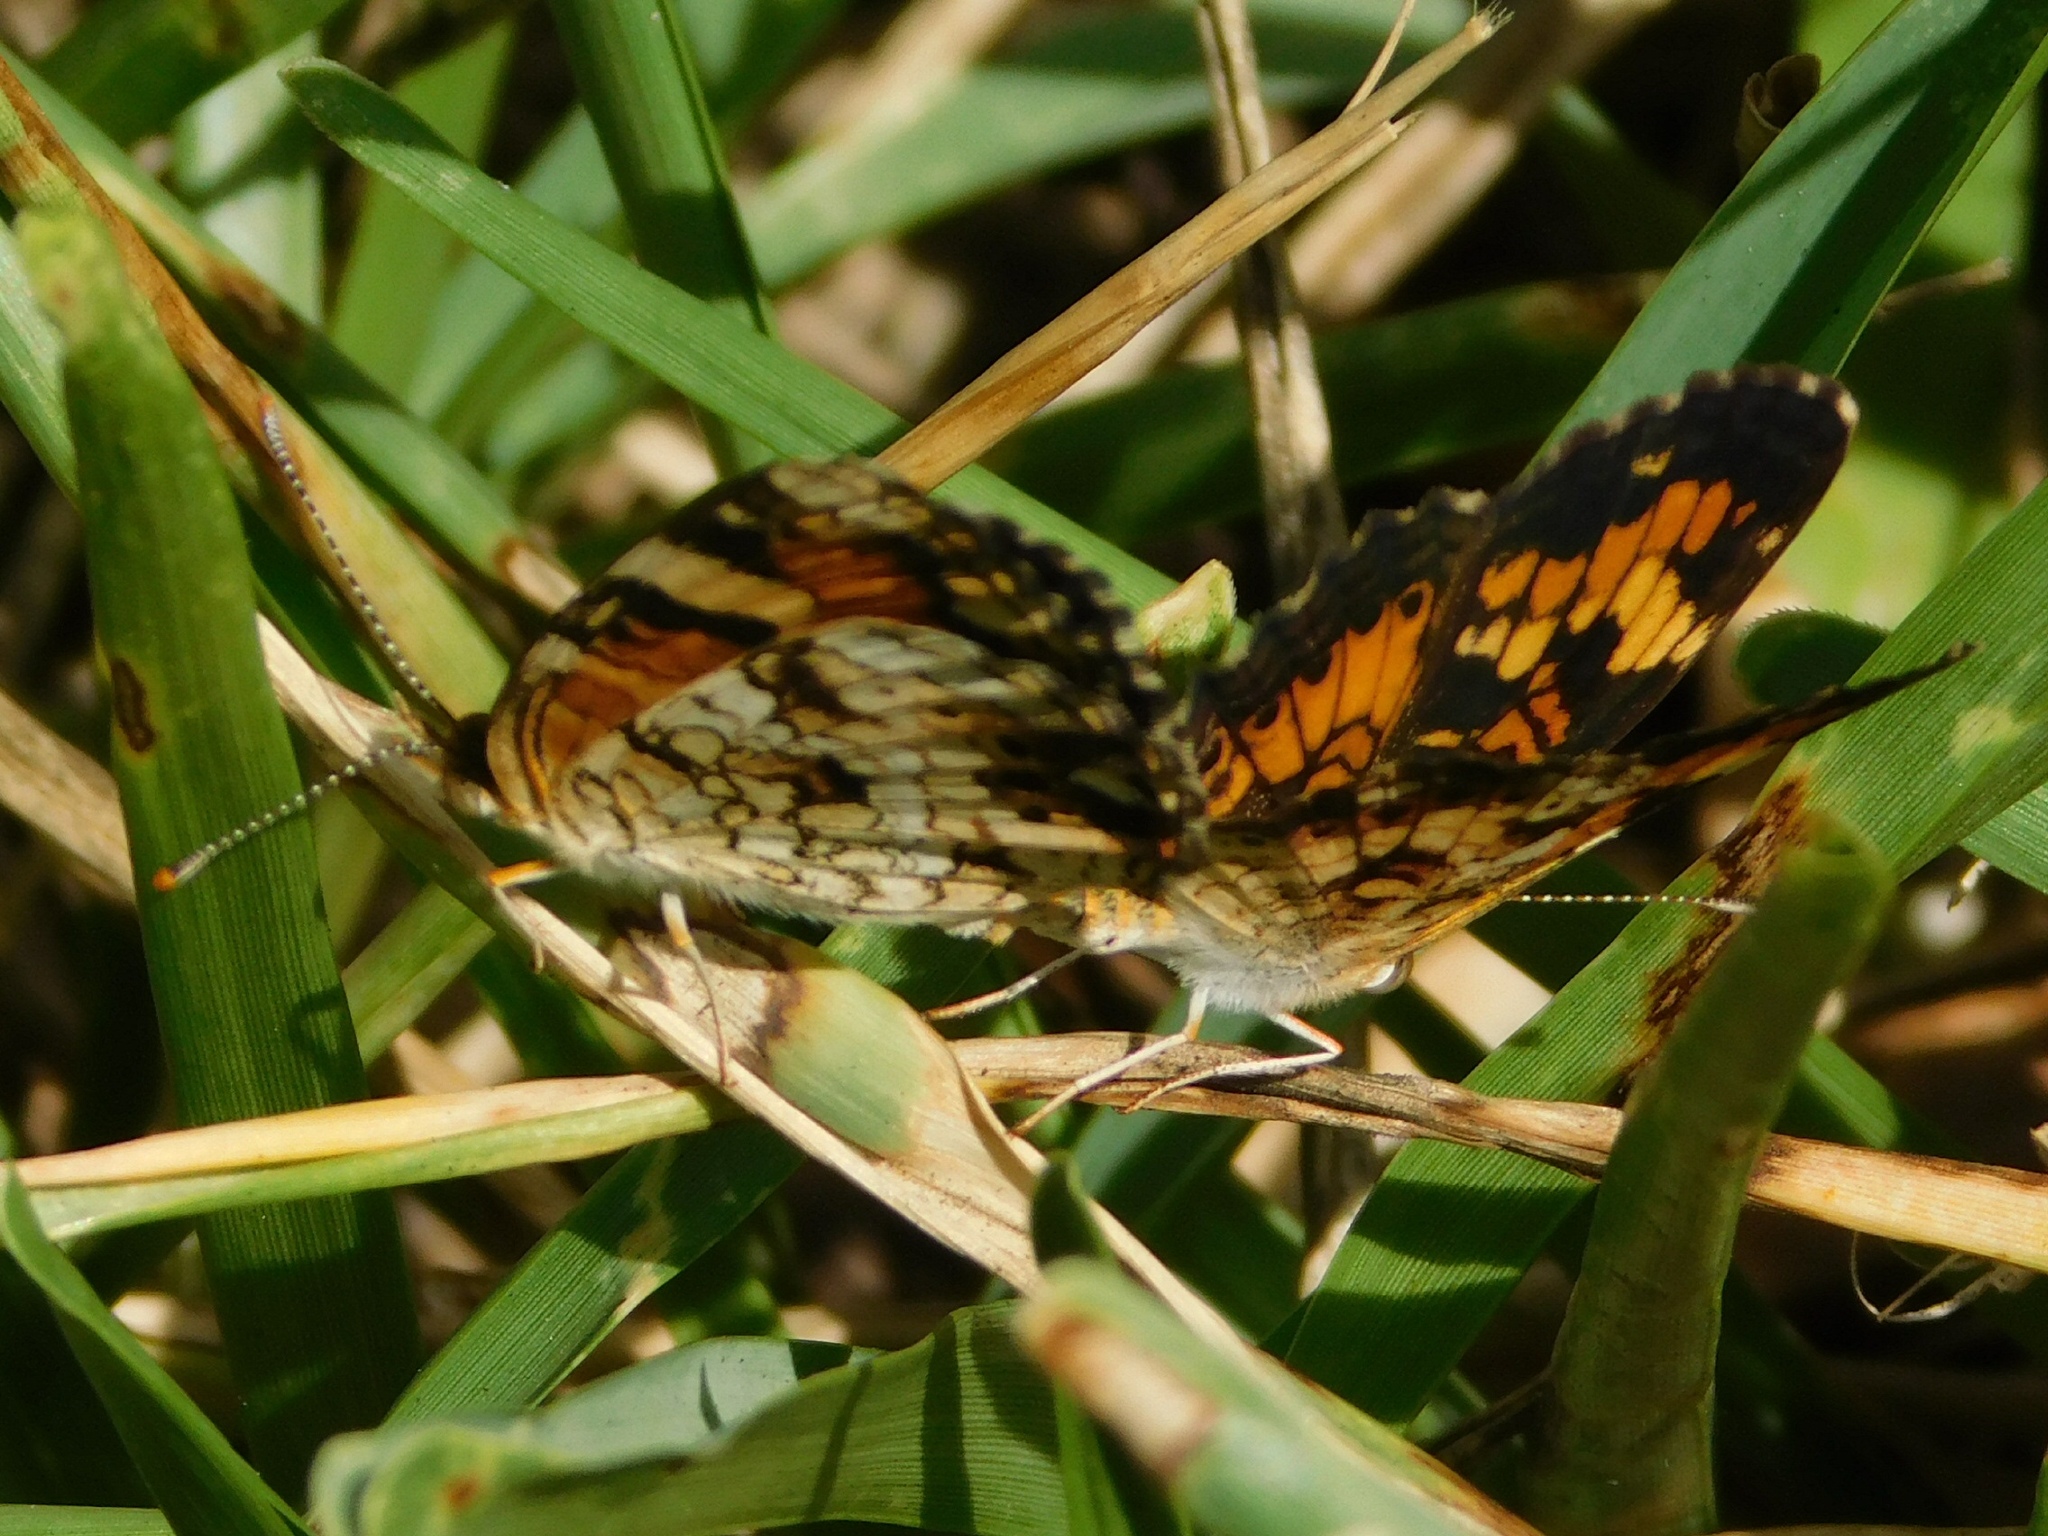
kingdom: Animalia
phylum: Arthropoda
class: Insecta
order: Lepidoptera
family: Nymphalidae
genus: Phyciodes
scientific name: Phyciodes phaon
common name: Phaon crescent
